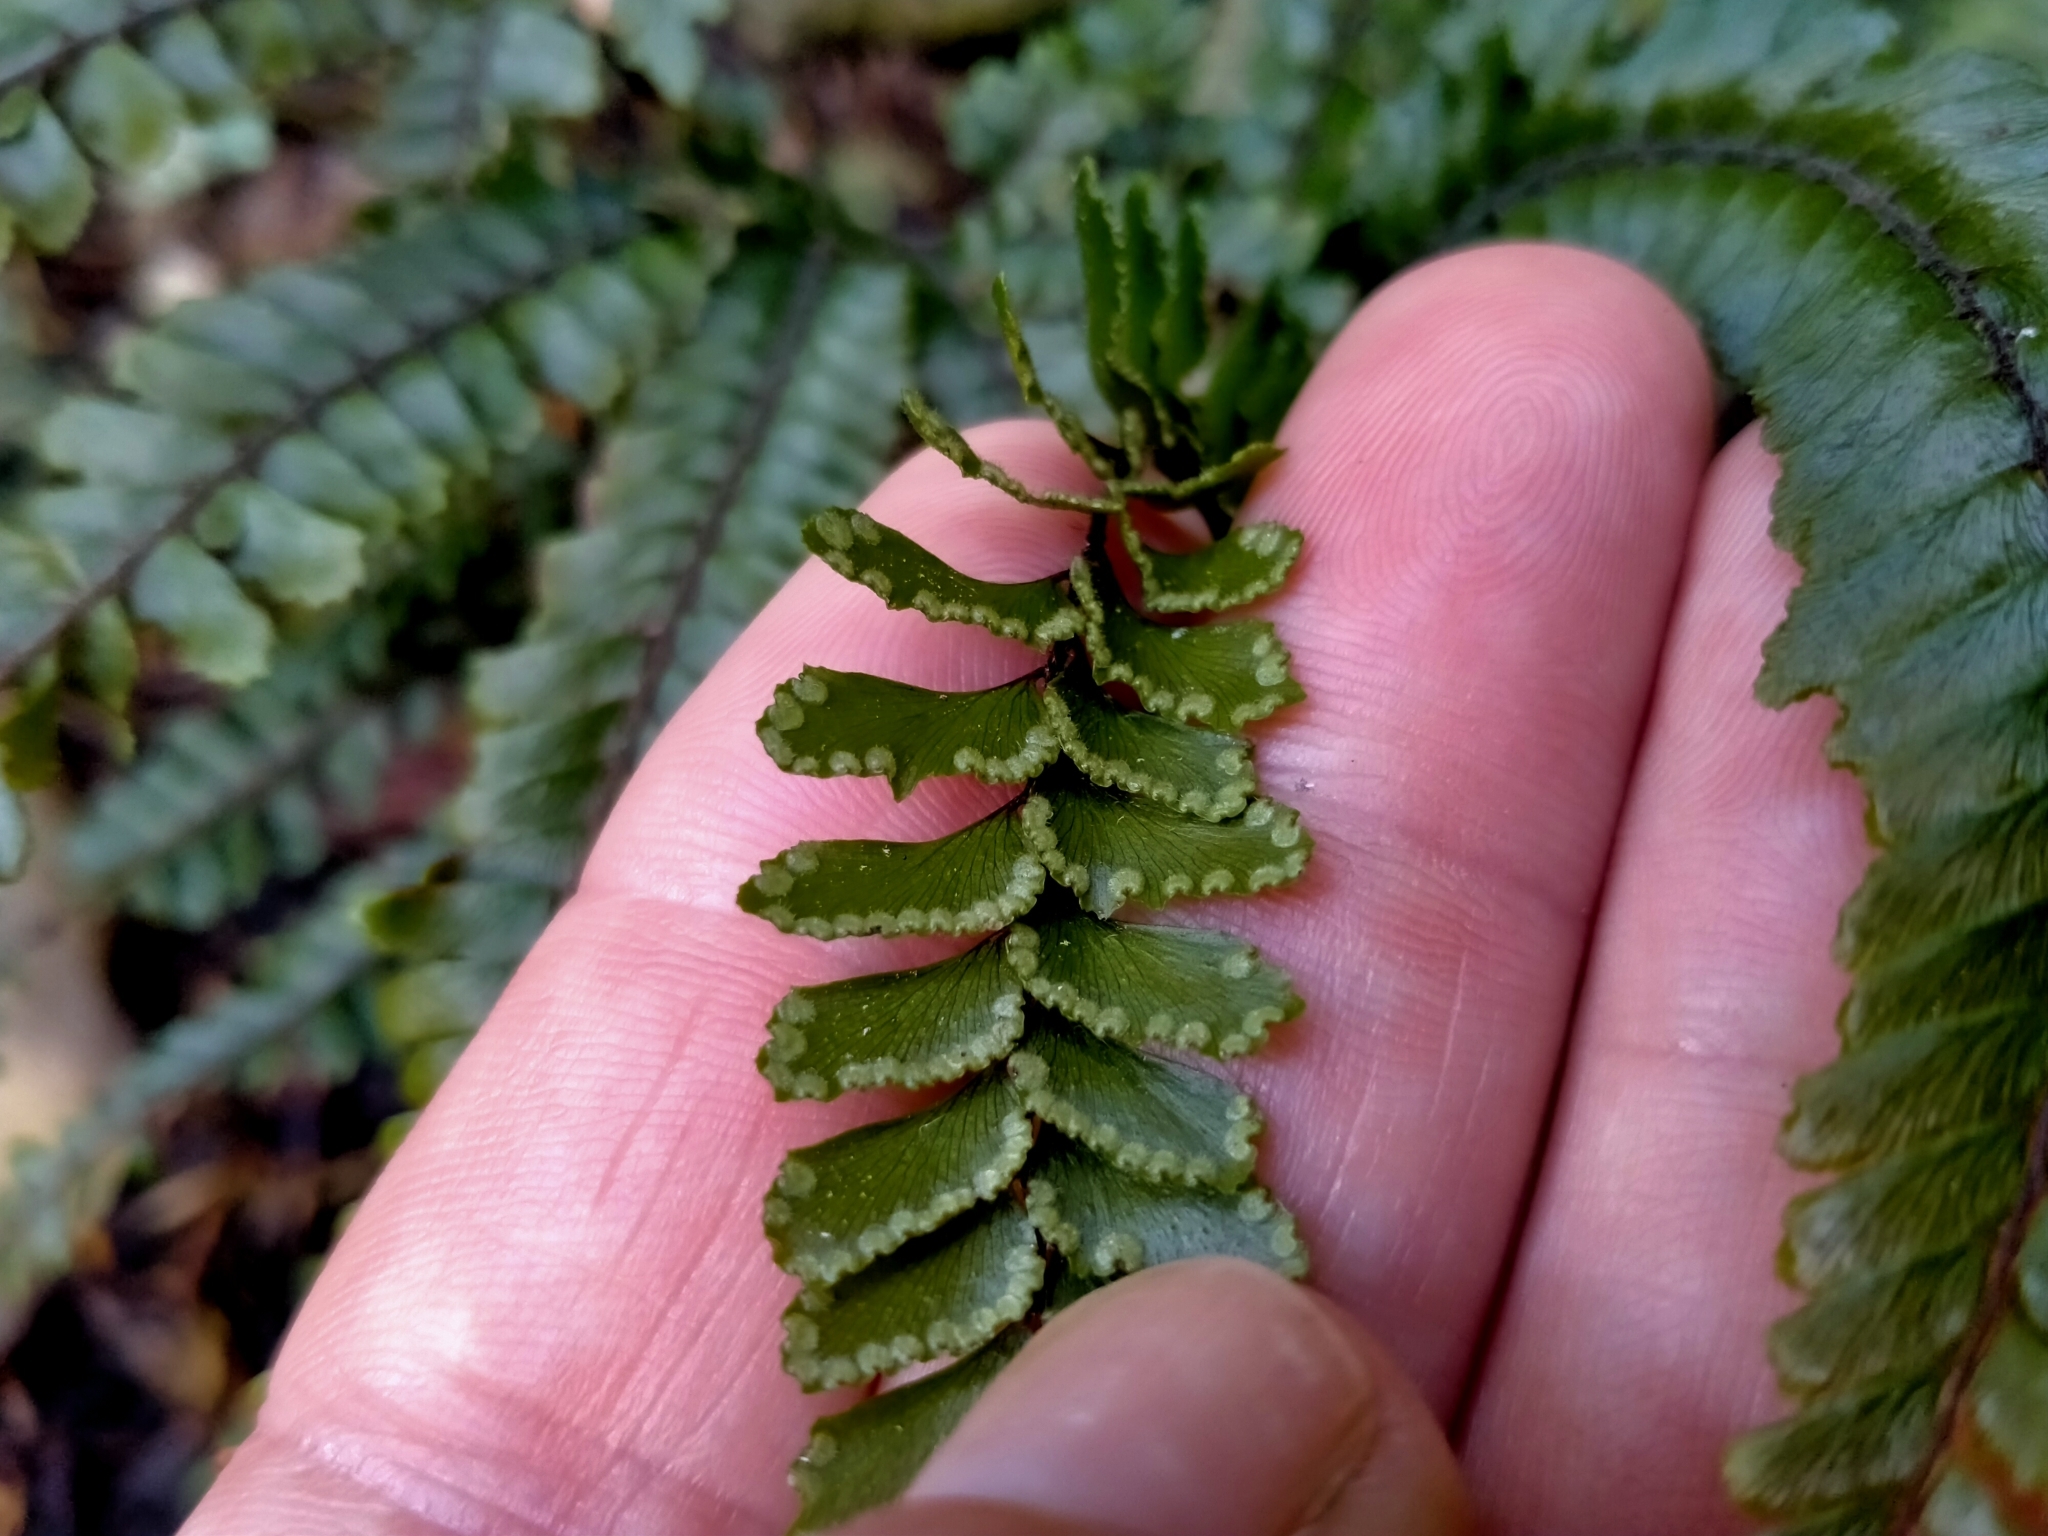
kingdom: Plantae
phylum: Tracheophyta
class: Polypodiopsida
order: Polypodiales
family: Pteridaceae
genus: Adiantum
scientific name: Adiantum hispidulum
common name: Rough maidenhair
